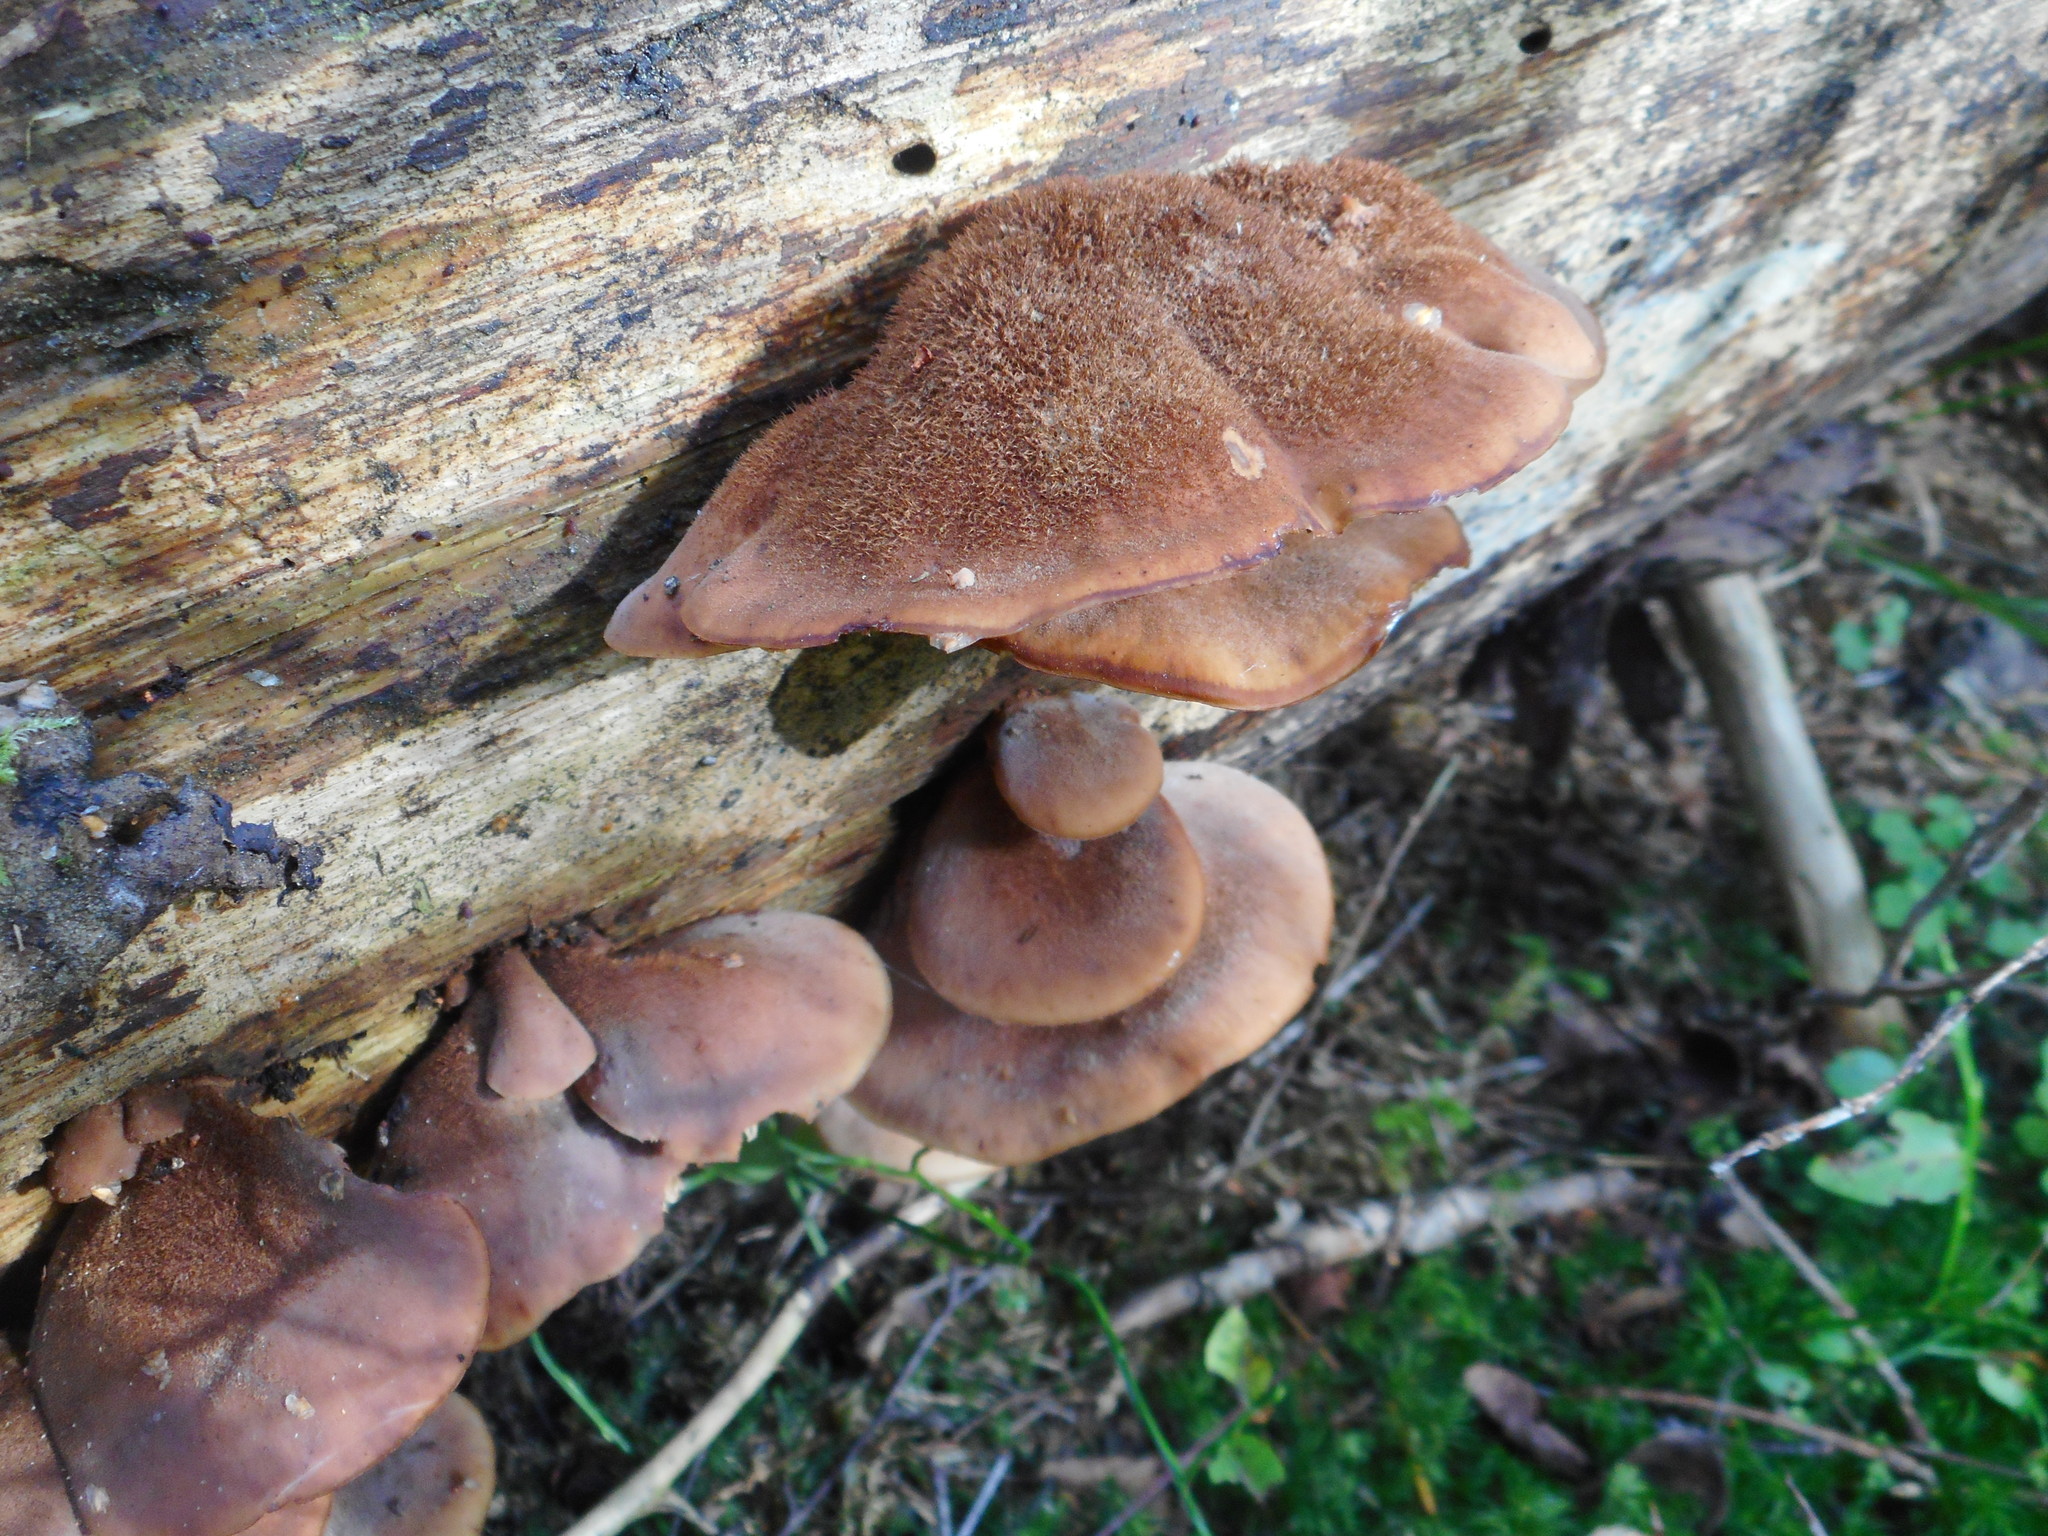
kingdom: Fungi
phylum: Basidiomycota
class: Agaricomycetes
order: Russulales
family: Auriscalpiaceae
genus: Lentinellus
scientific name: Lentinellus ursinus
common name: Bear lentinus
